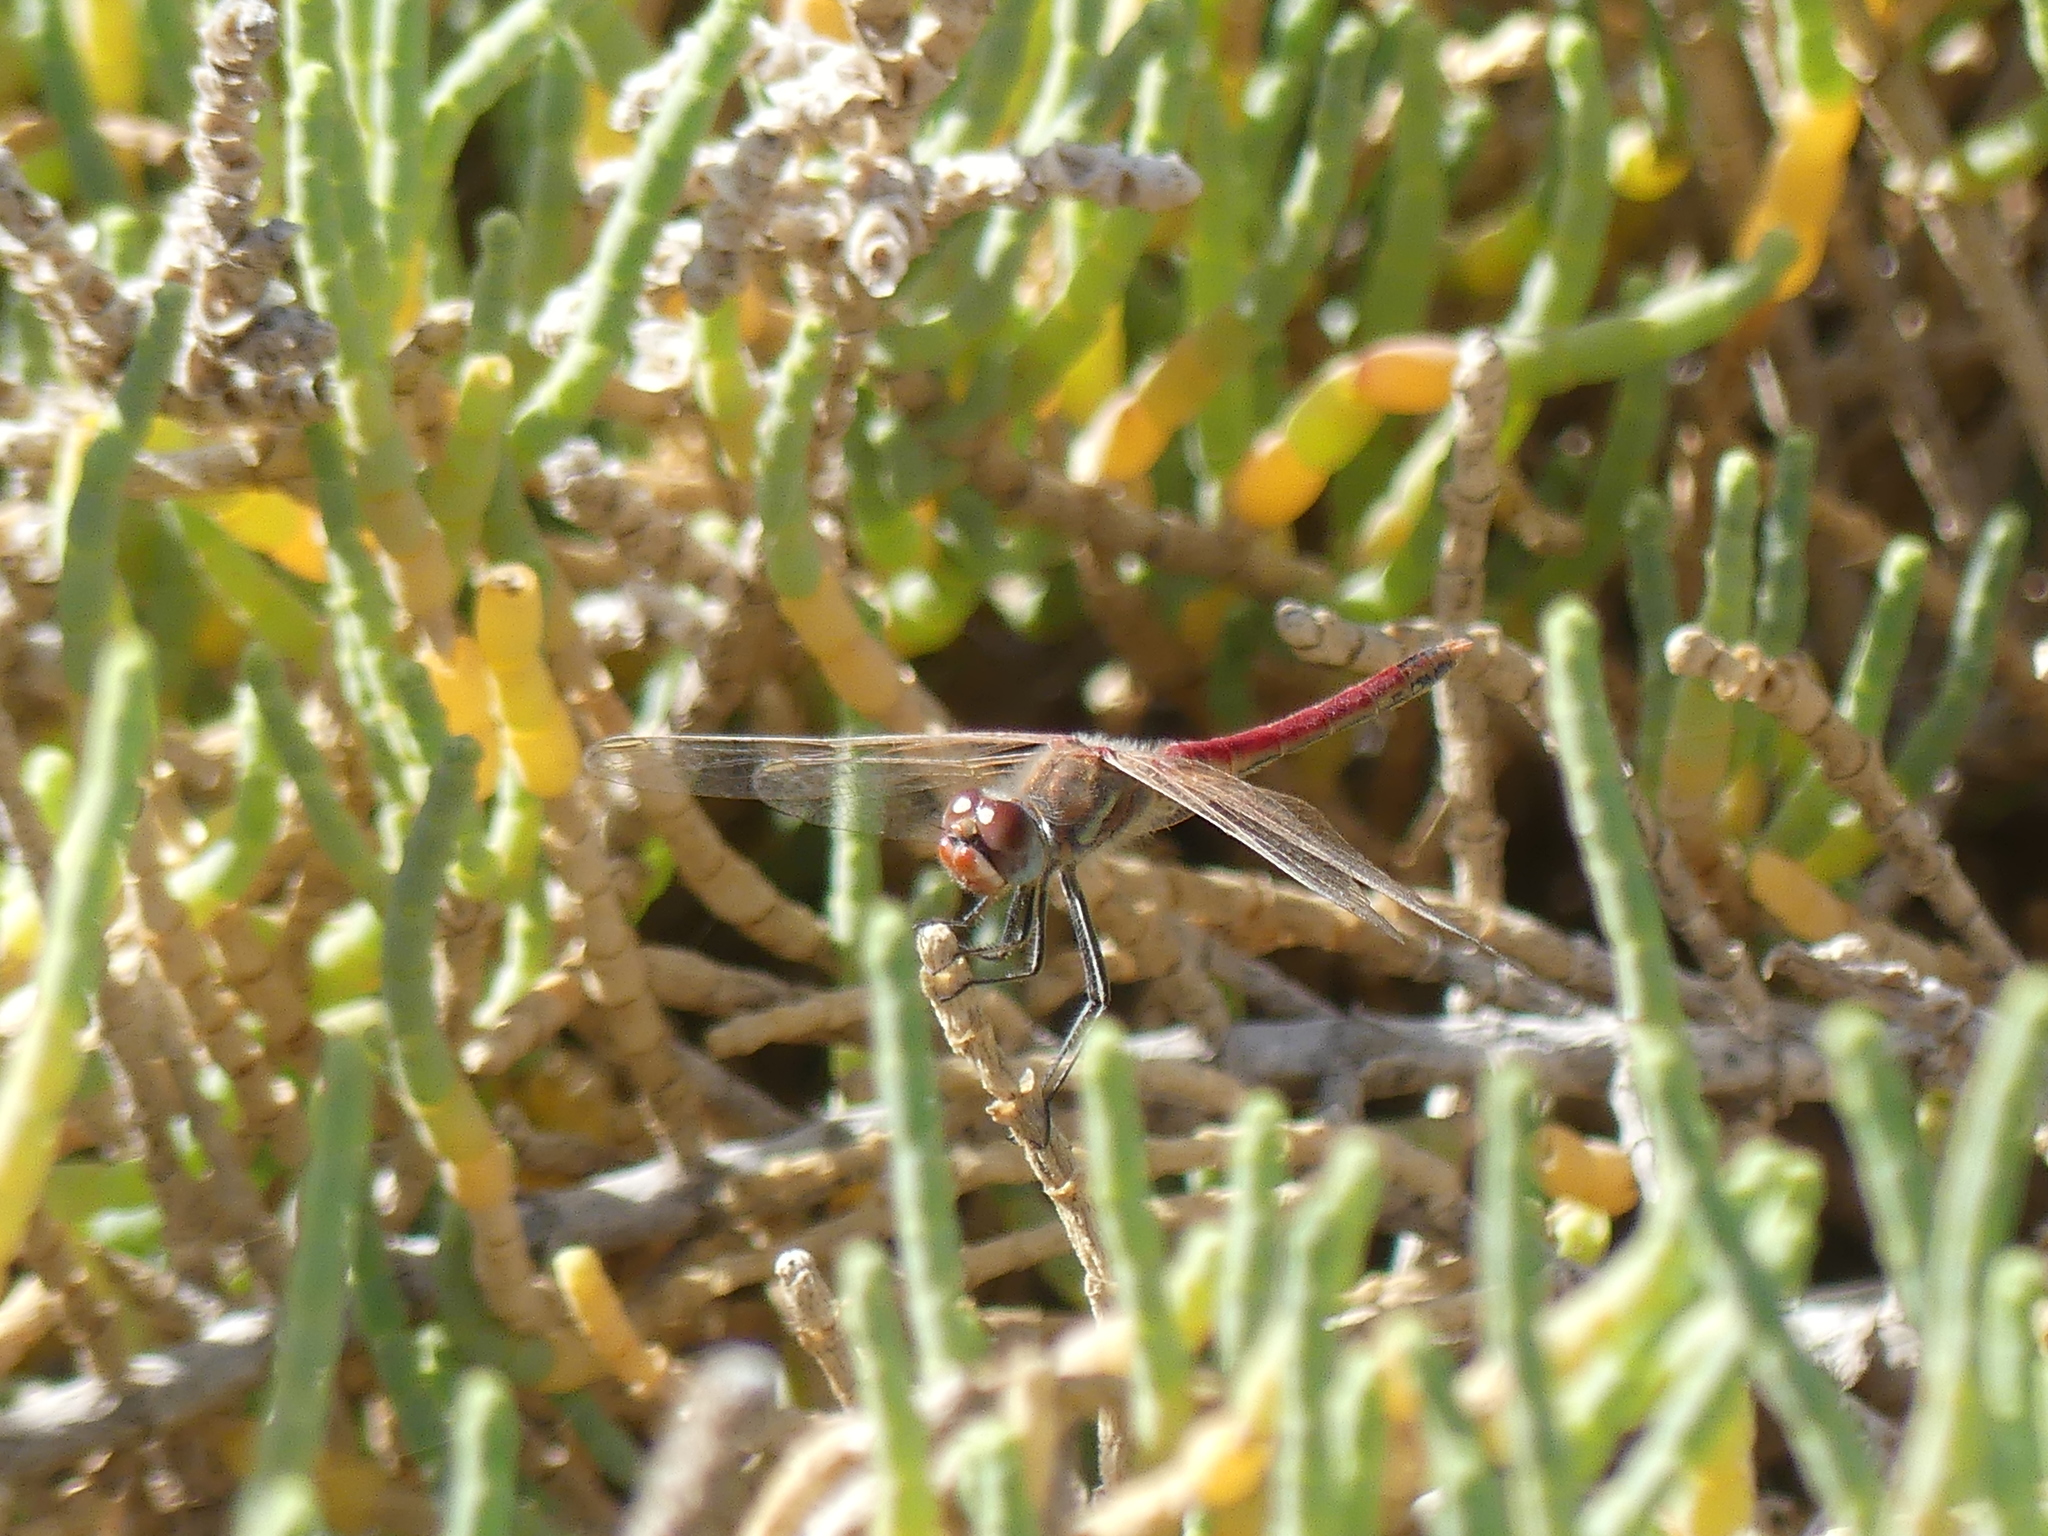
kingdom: Animalia
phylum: Arthropoda
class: Insecta
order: Odonata
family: Libellulidae
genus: Sympetrum
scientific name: Sympetrum fonscolombii
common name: Red-veined darter
